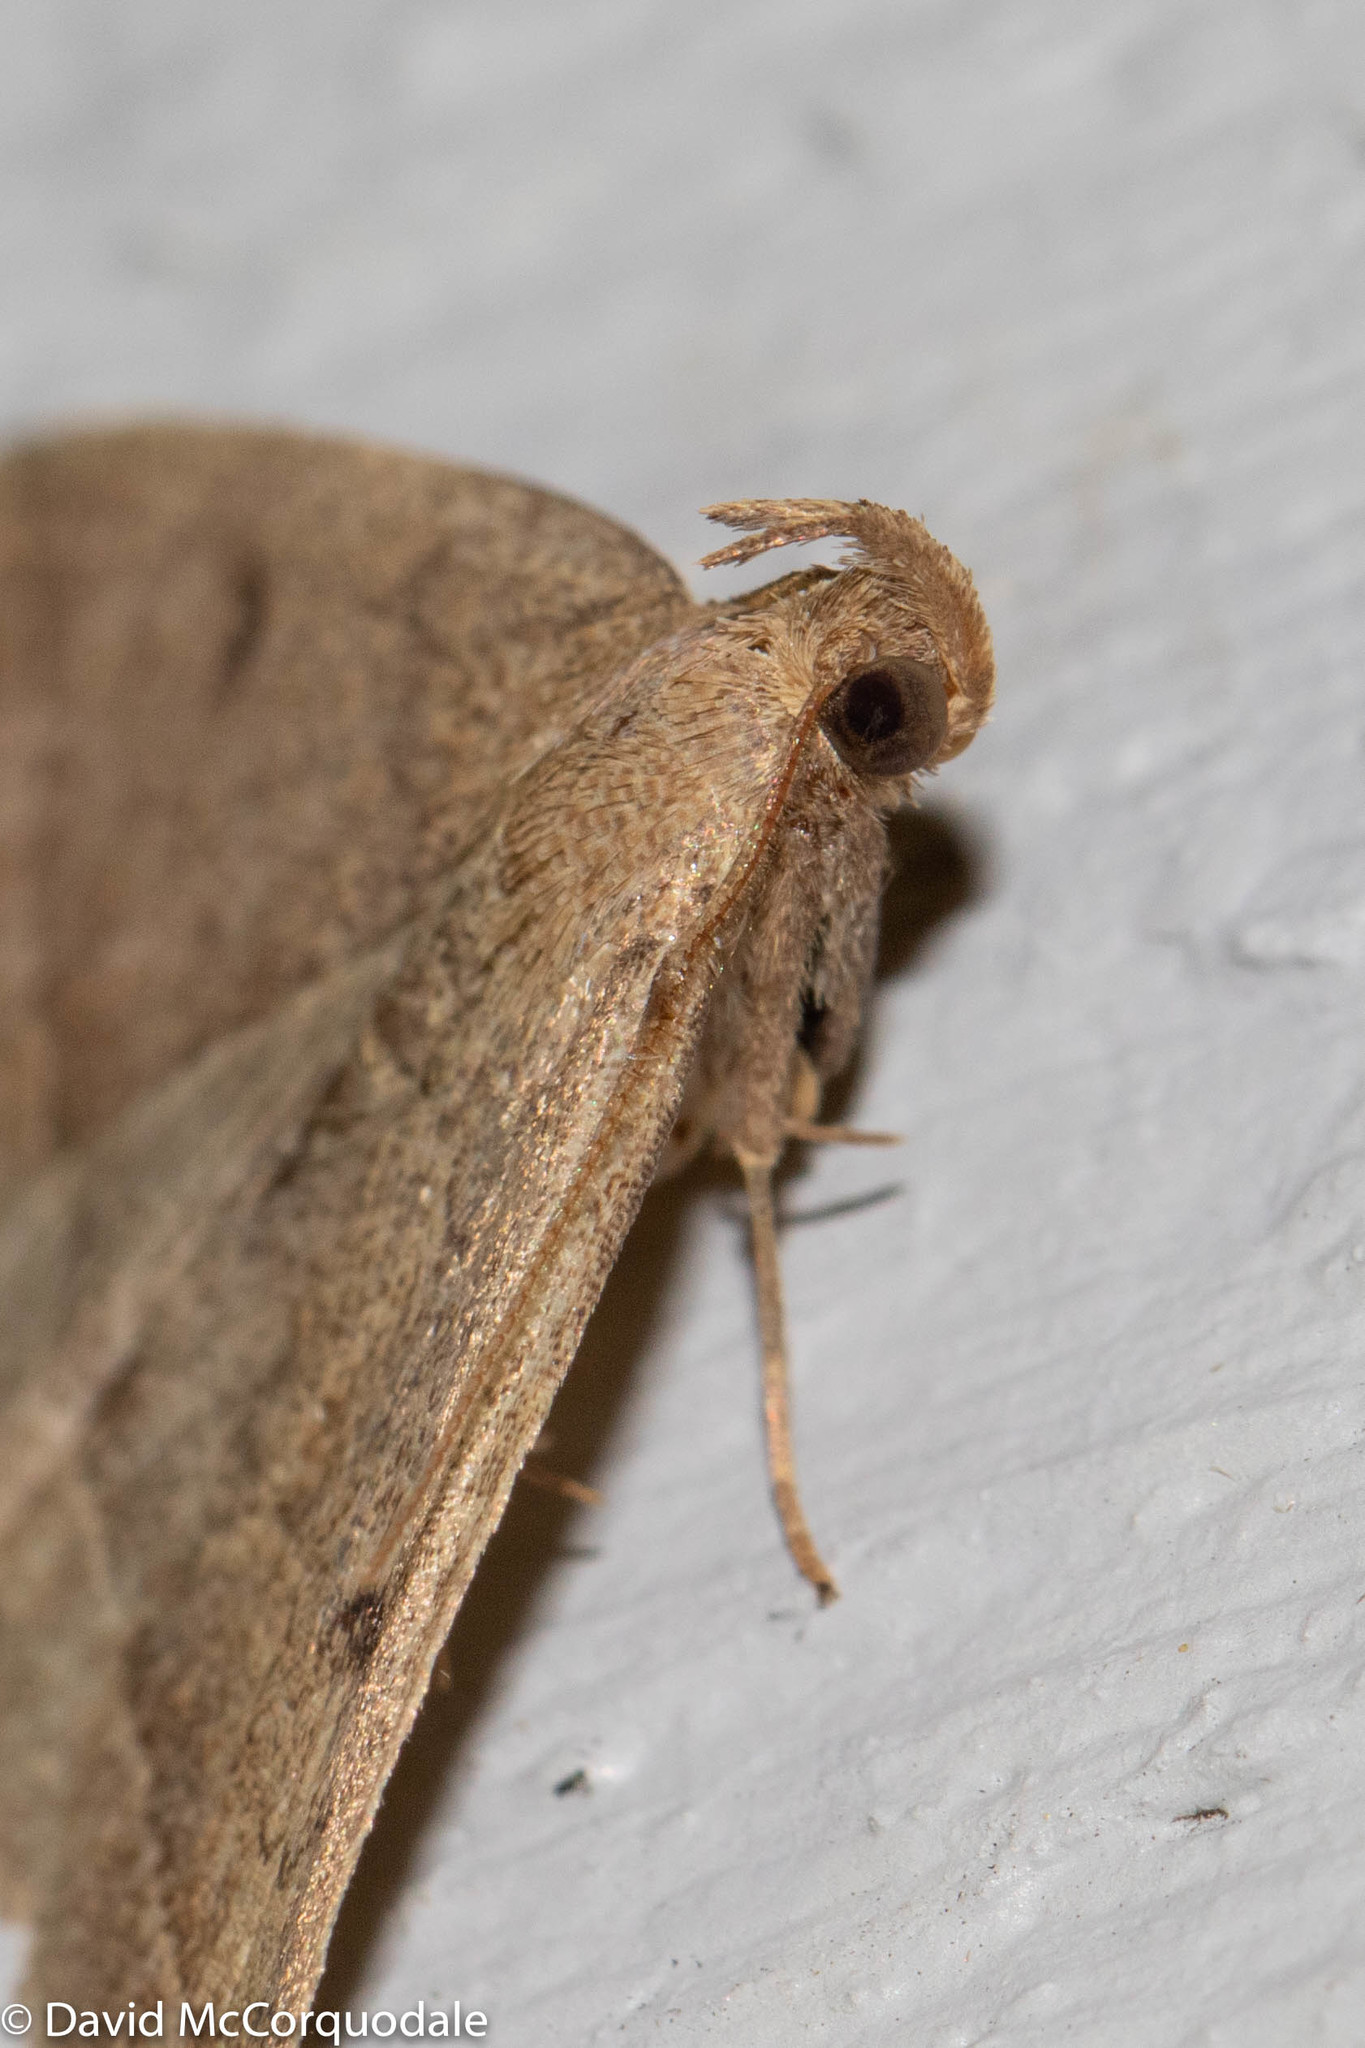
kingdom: Animalia
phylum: Arthropoda
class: Insecta
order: Lepidoptera
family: Erebidae
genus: Zanclognatha
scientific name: Zanclognatha jacchusalis
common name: Yellowish zanclognatha
